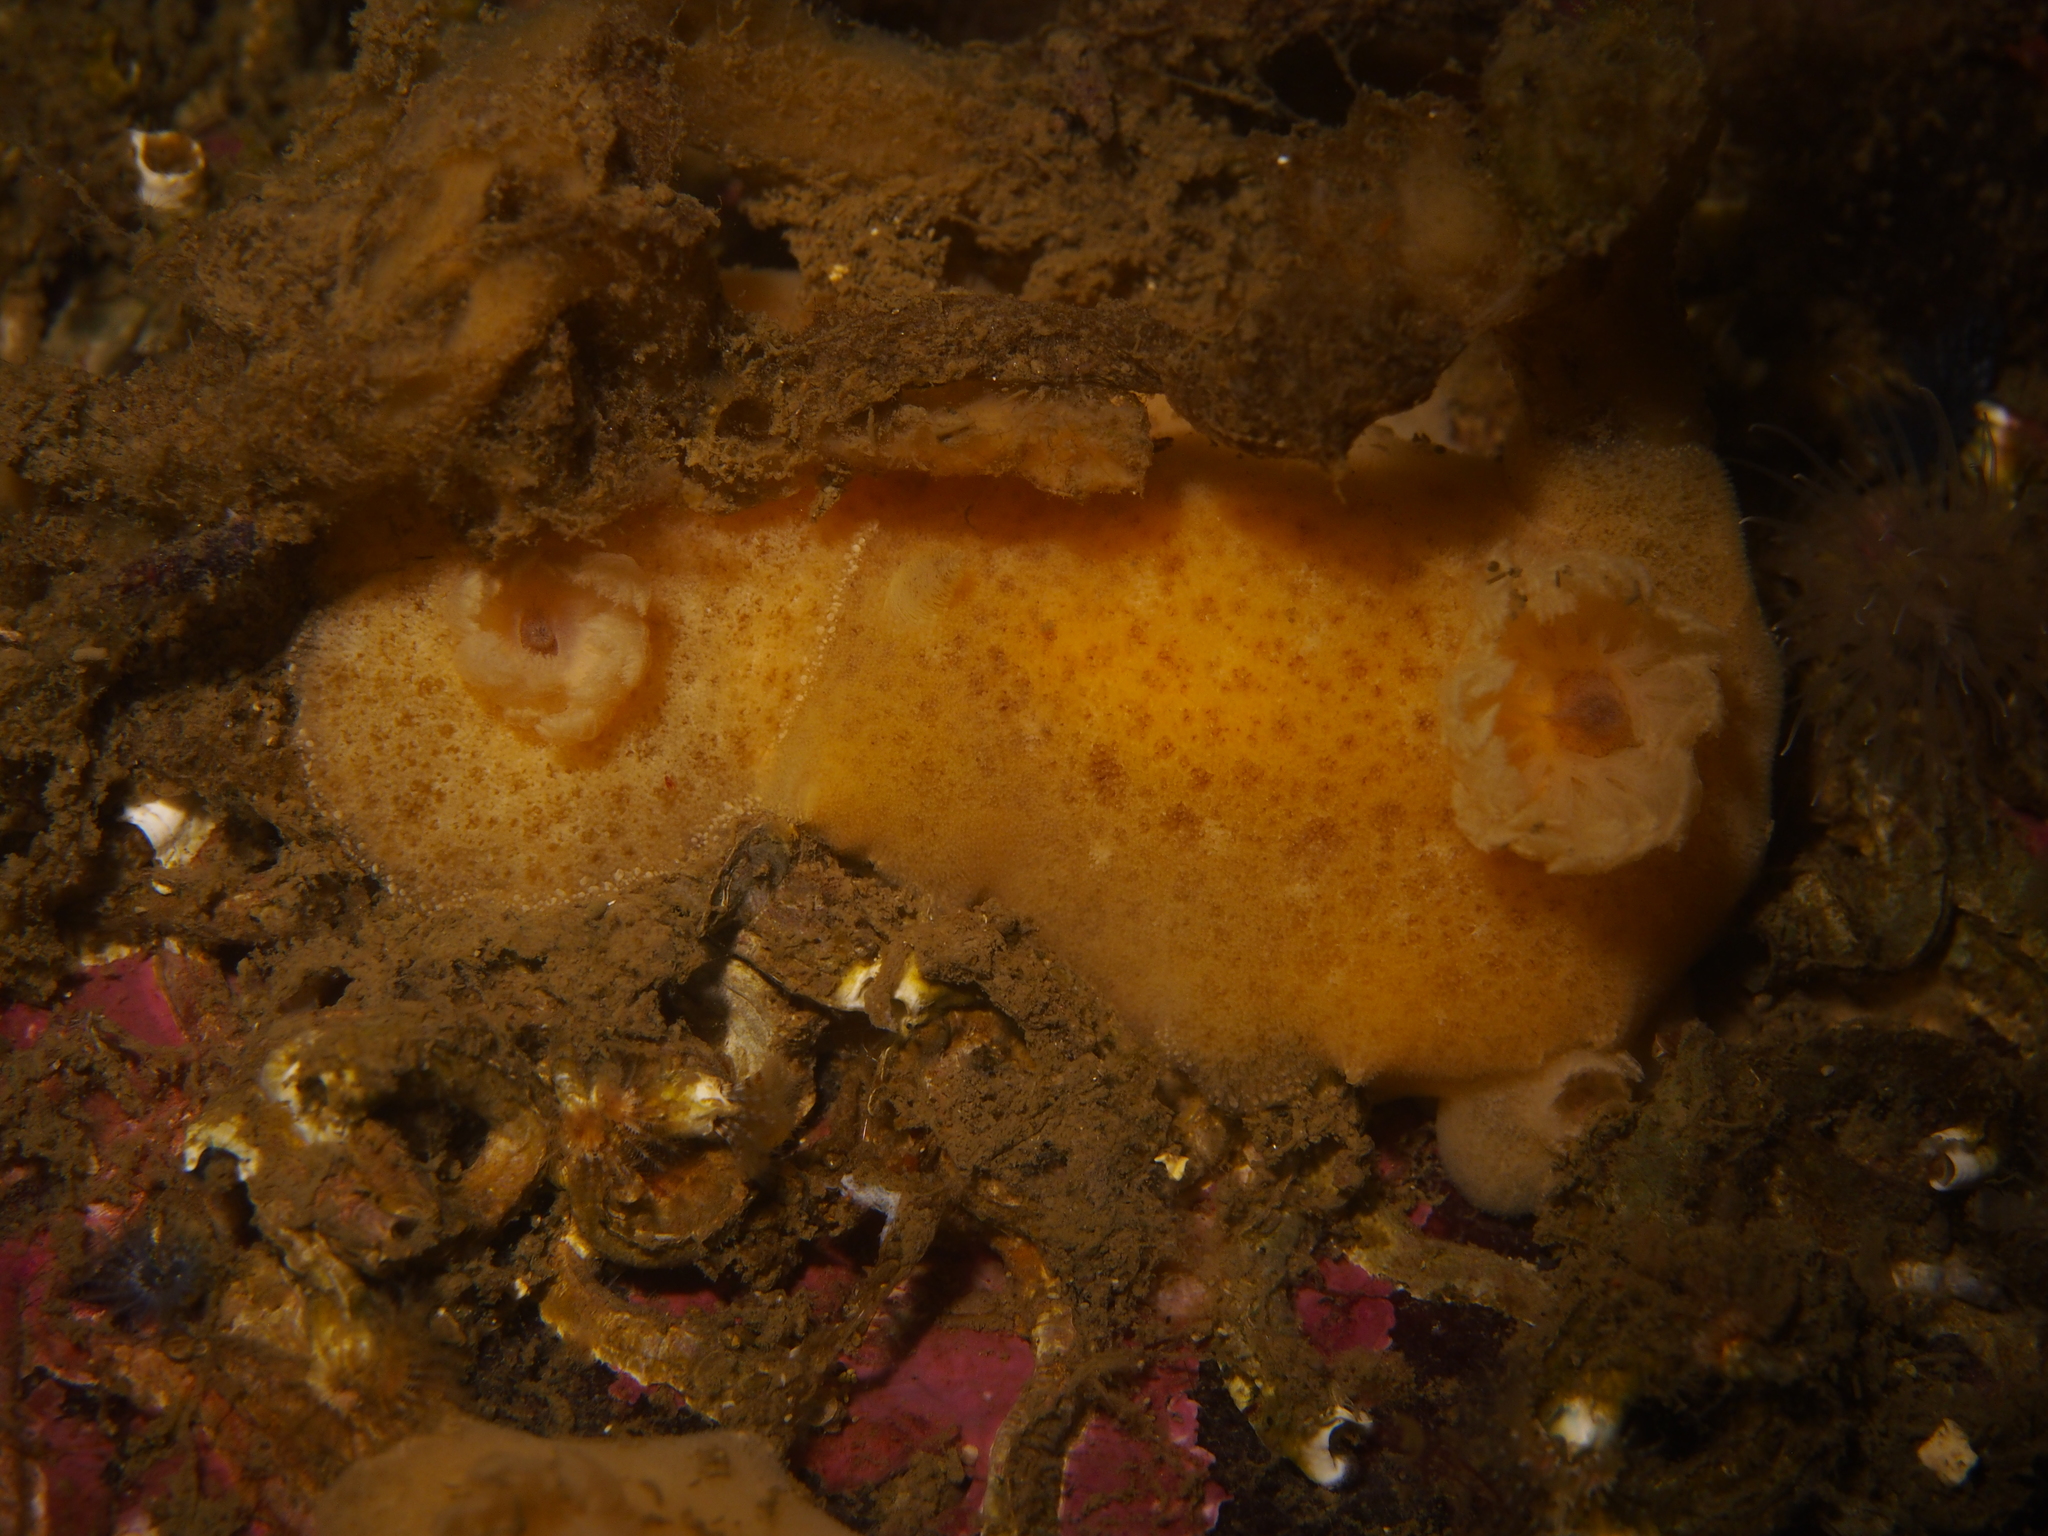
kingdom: Animalia
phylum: Mollusca
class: Gastropoda
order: Nudibranchia
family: Discodorididae
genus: Jorunna
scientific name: Jorunna tomentosa
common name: Grey sea slug
